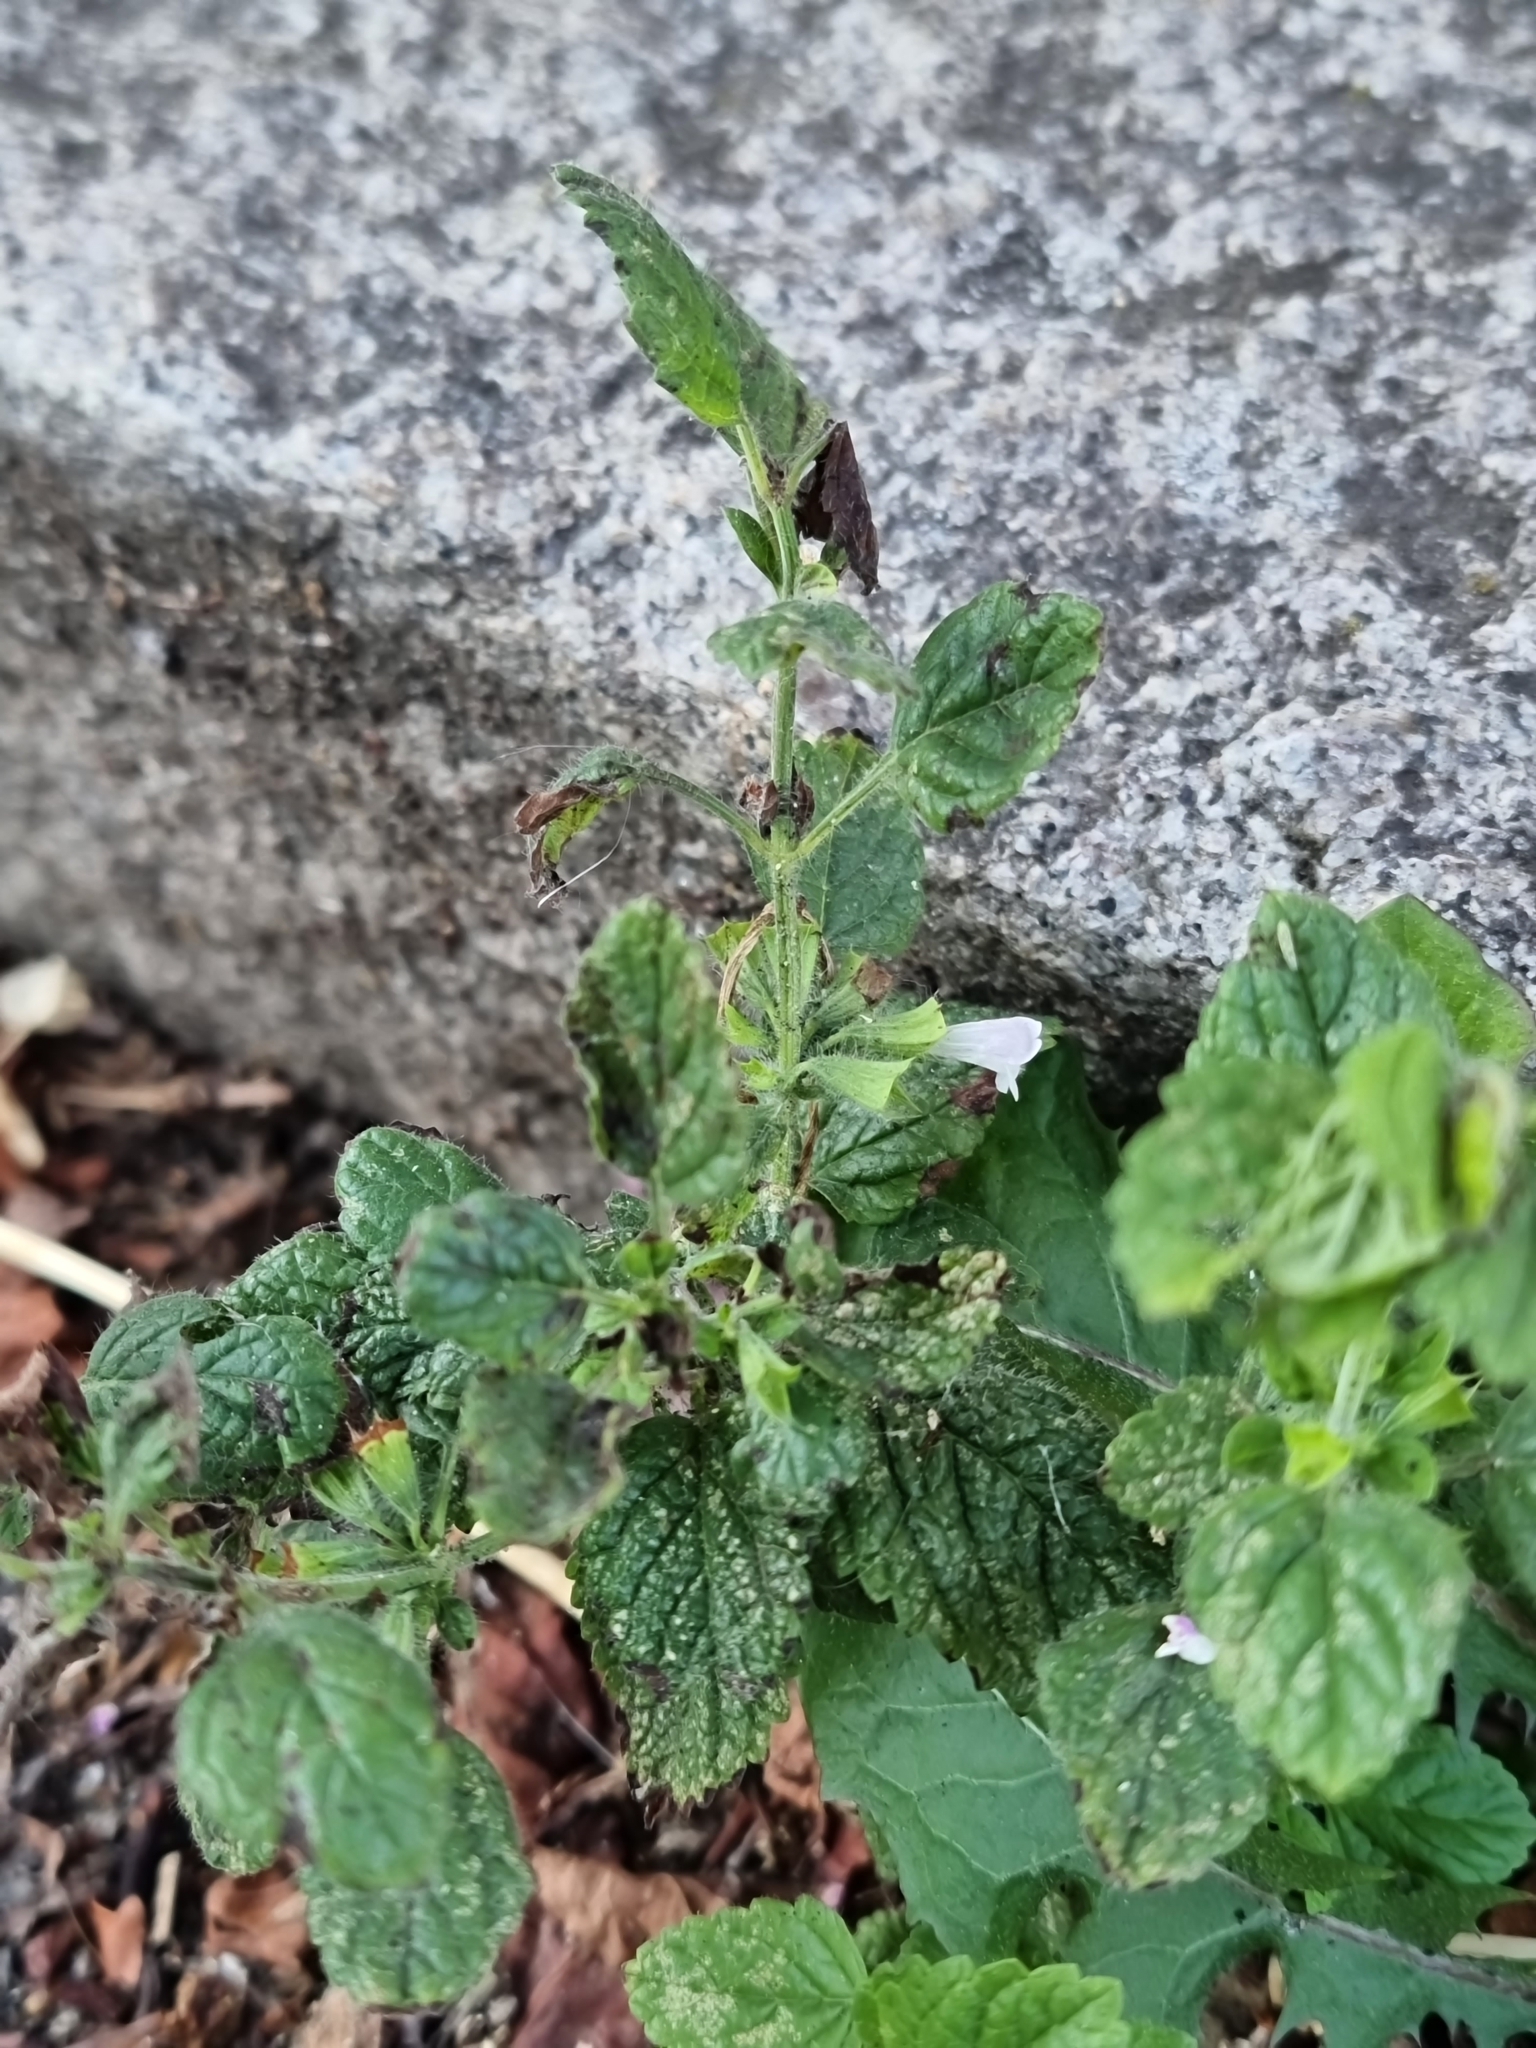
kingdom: Plantae
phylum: Tracheophyta
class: Magnoliopsida
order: Lamiales
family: Lamiaceae
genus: Melissa
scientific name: Melissa officinalis
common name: Balm
